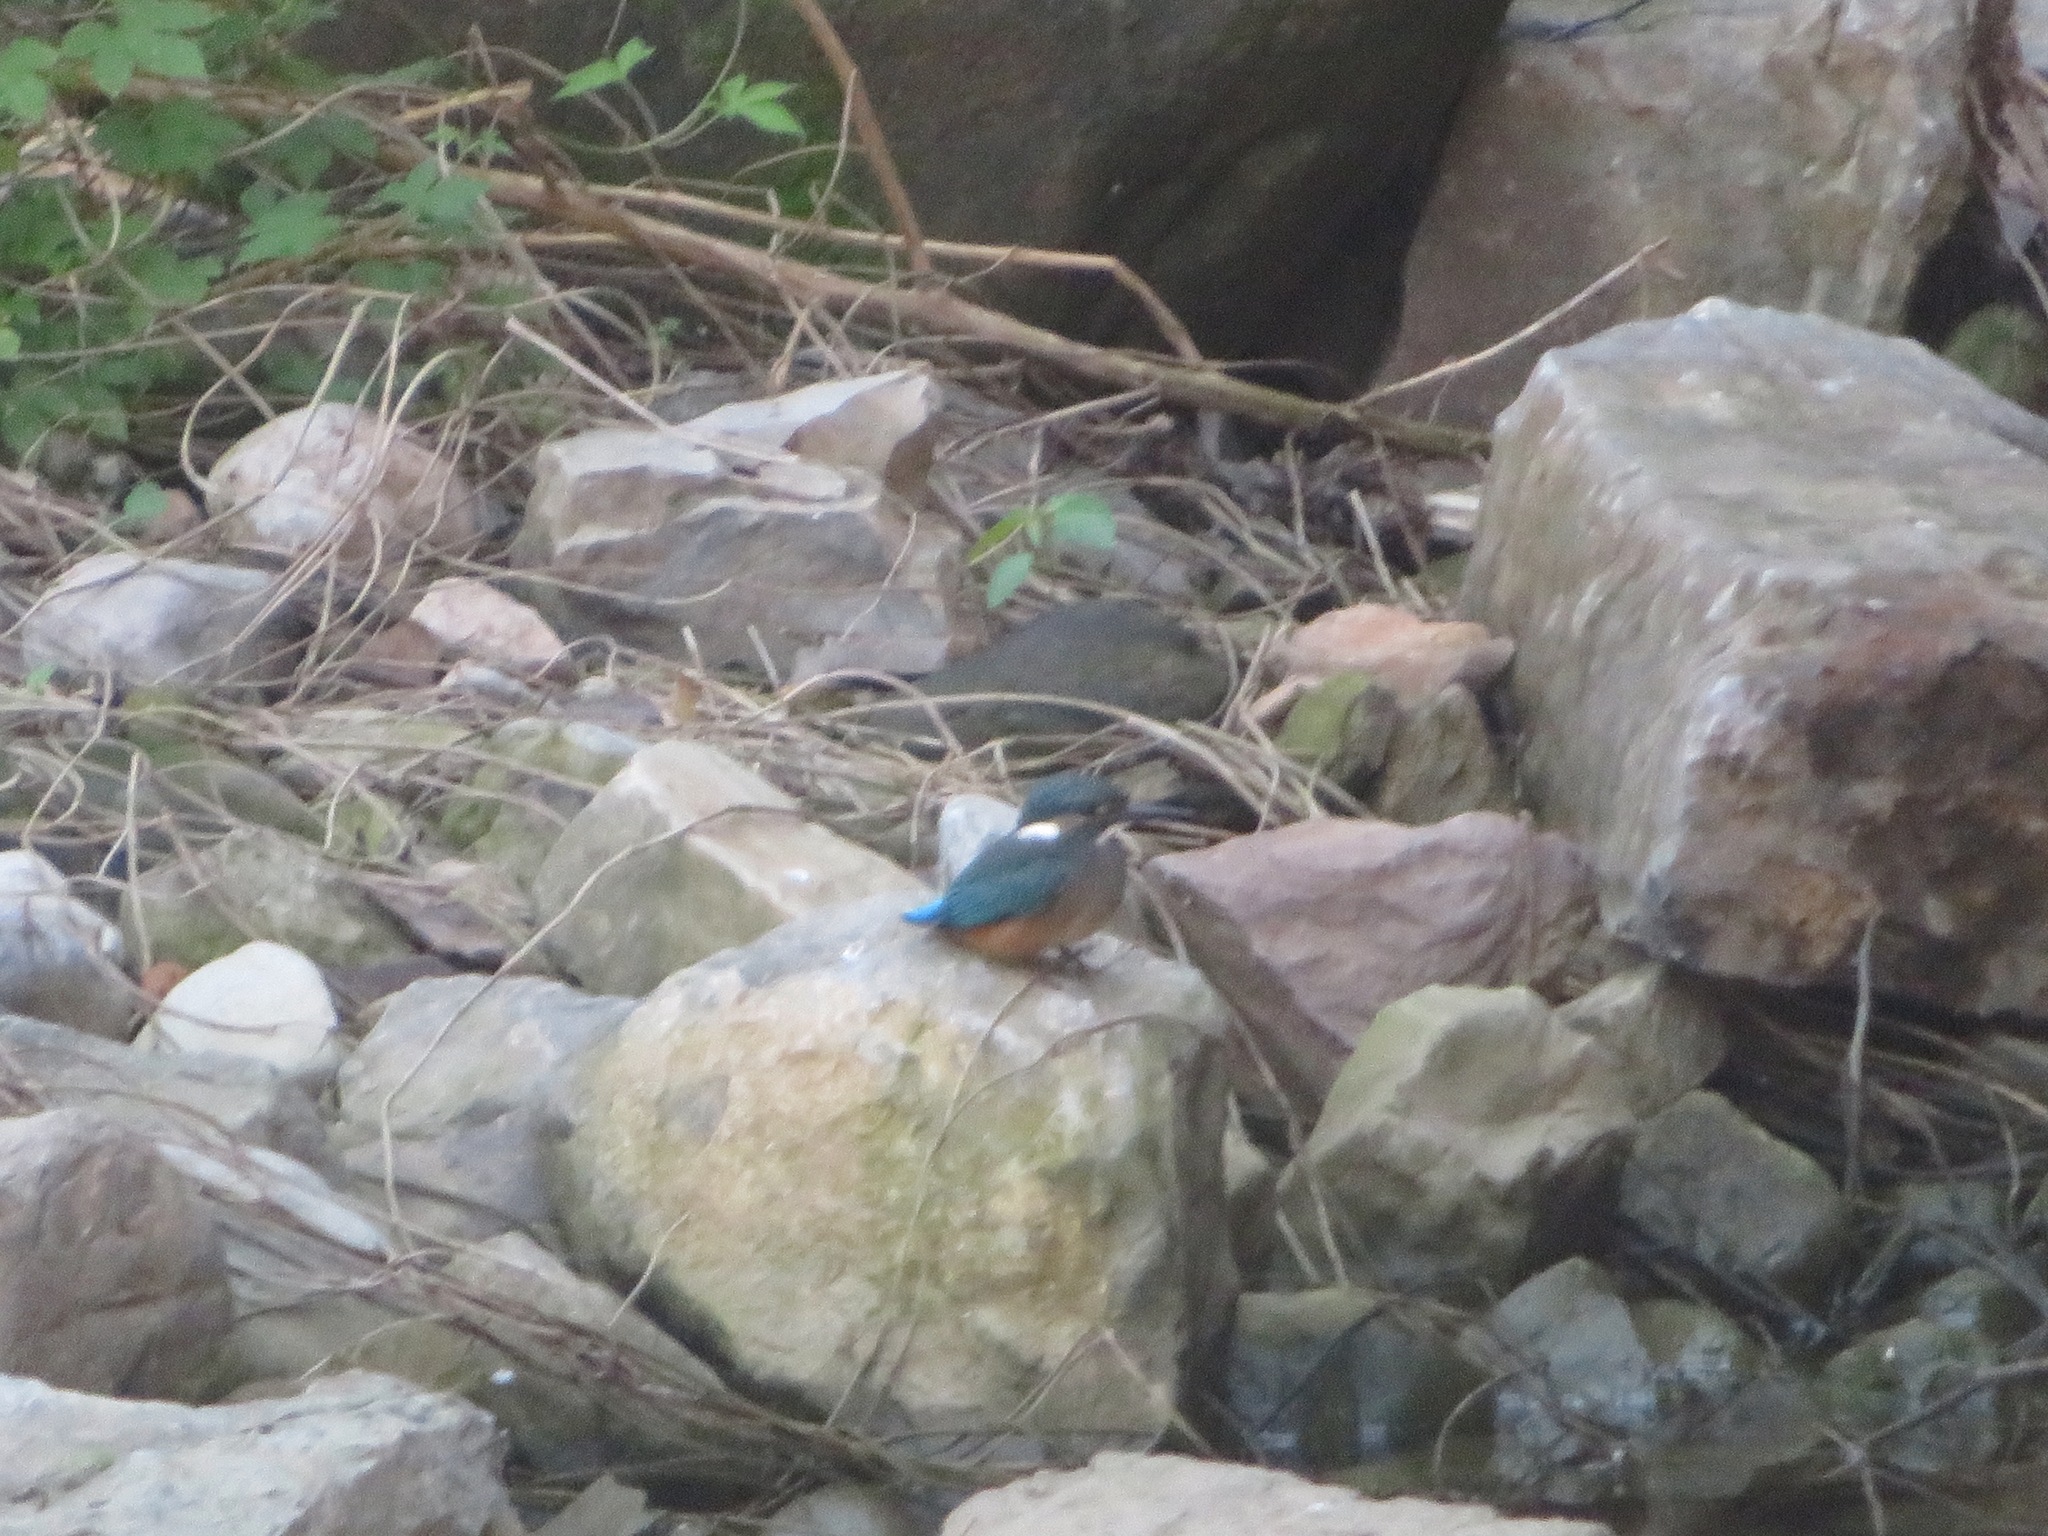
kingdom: Animalia
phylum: Chordata
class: Aves
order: Coraciiformes
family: Alcedinidae
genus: Alcedo
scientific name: Alcedo atthis
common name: Common kingfisher
